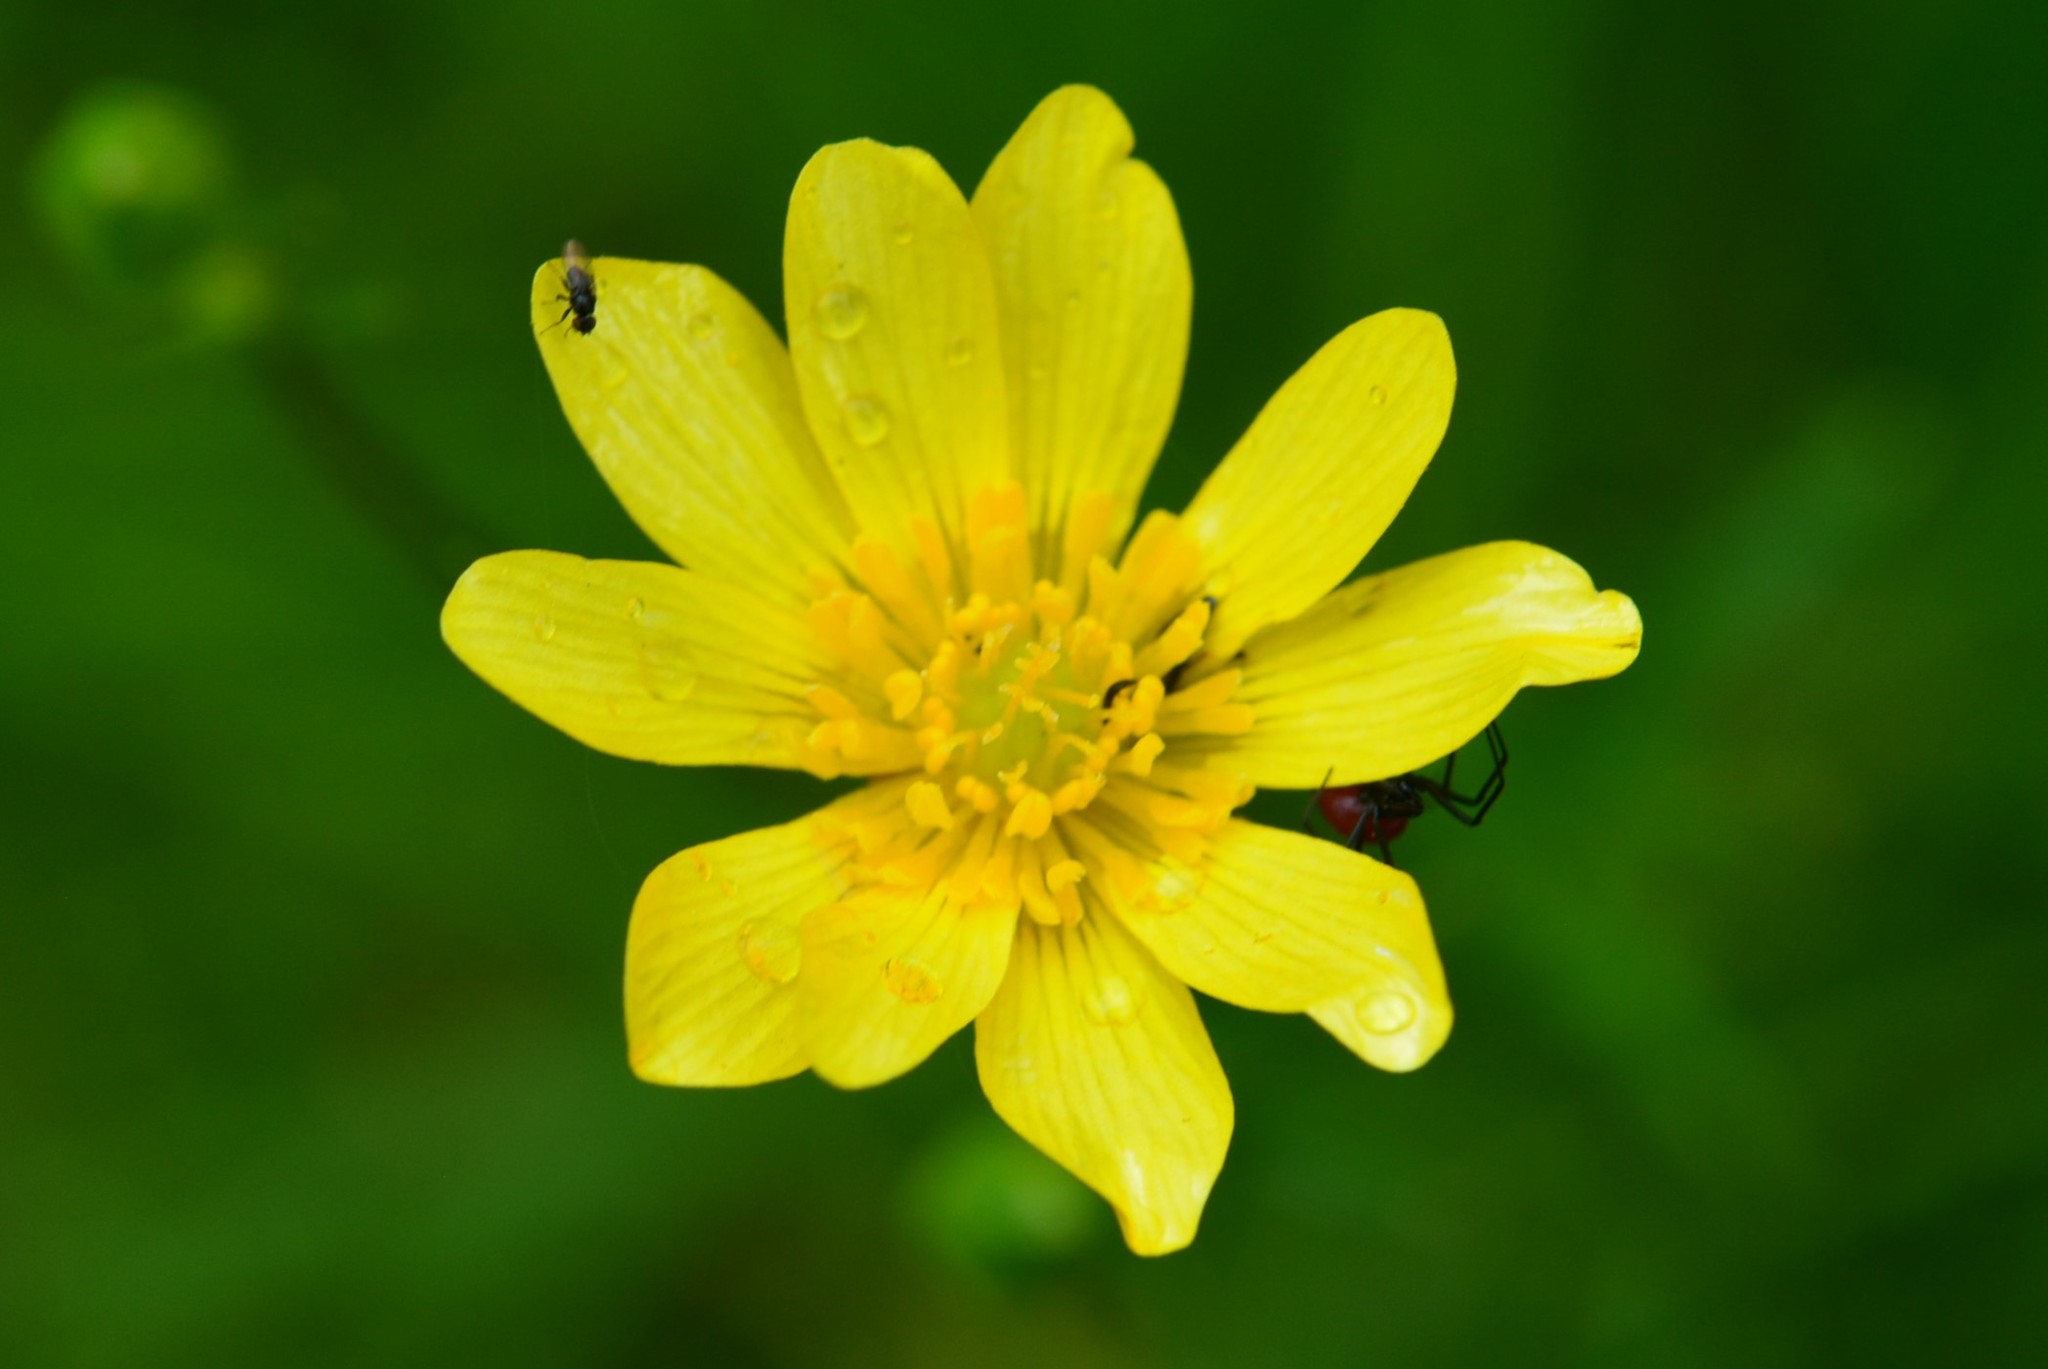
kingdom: Plantae
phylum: Tracheophyta
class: Magnoliopsida
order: Ranunculales
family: Ranunculaceae
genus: Ranunculus
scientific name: Ranunculus petiolaris
